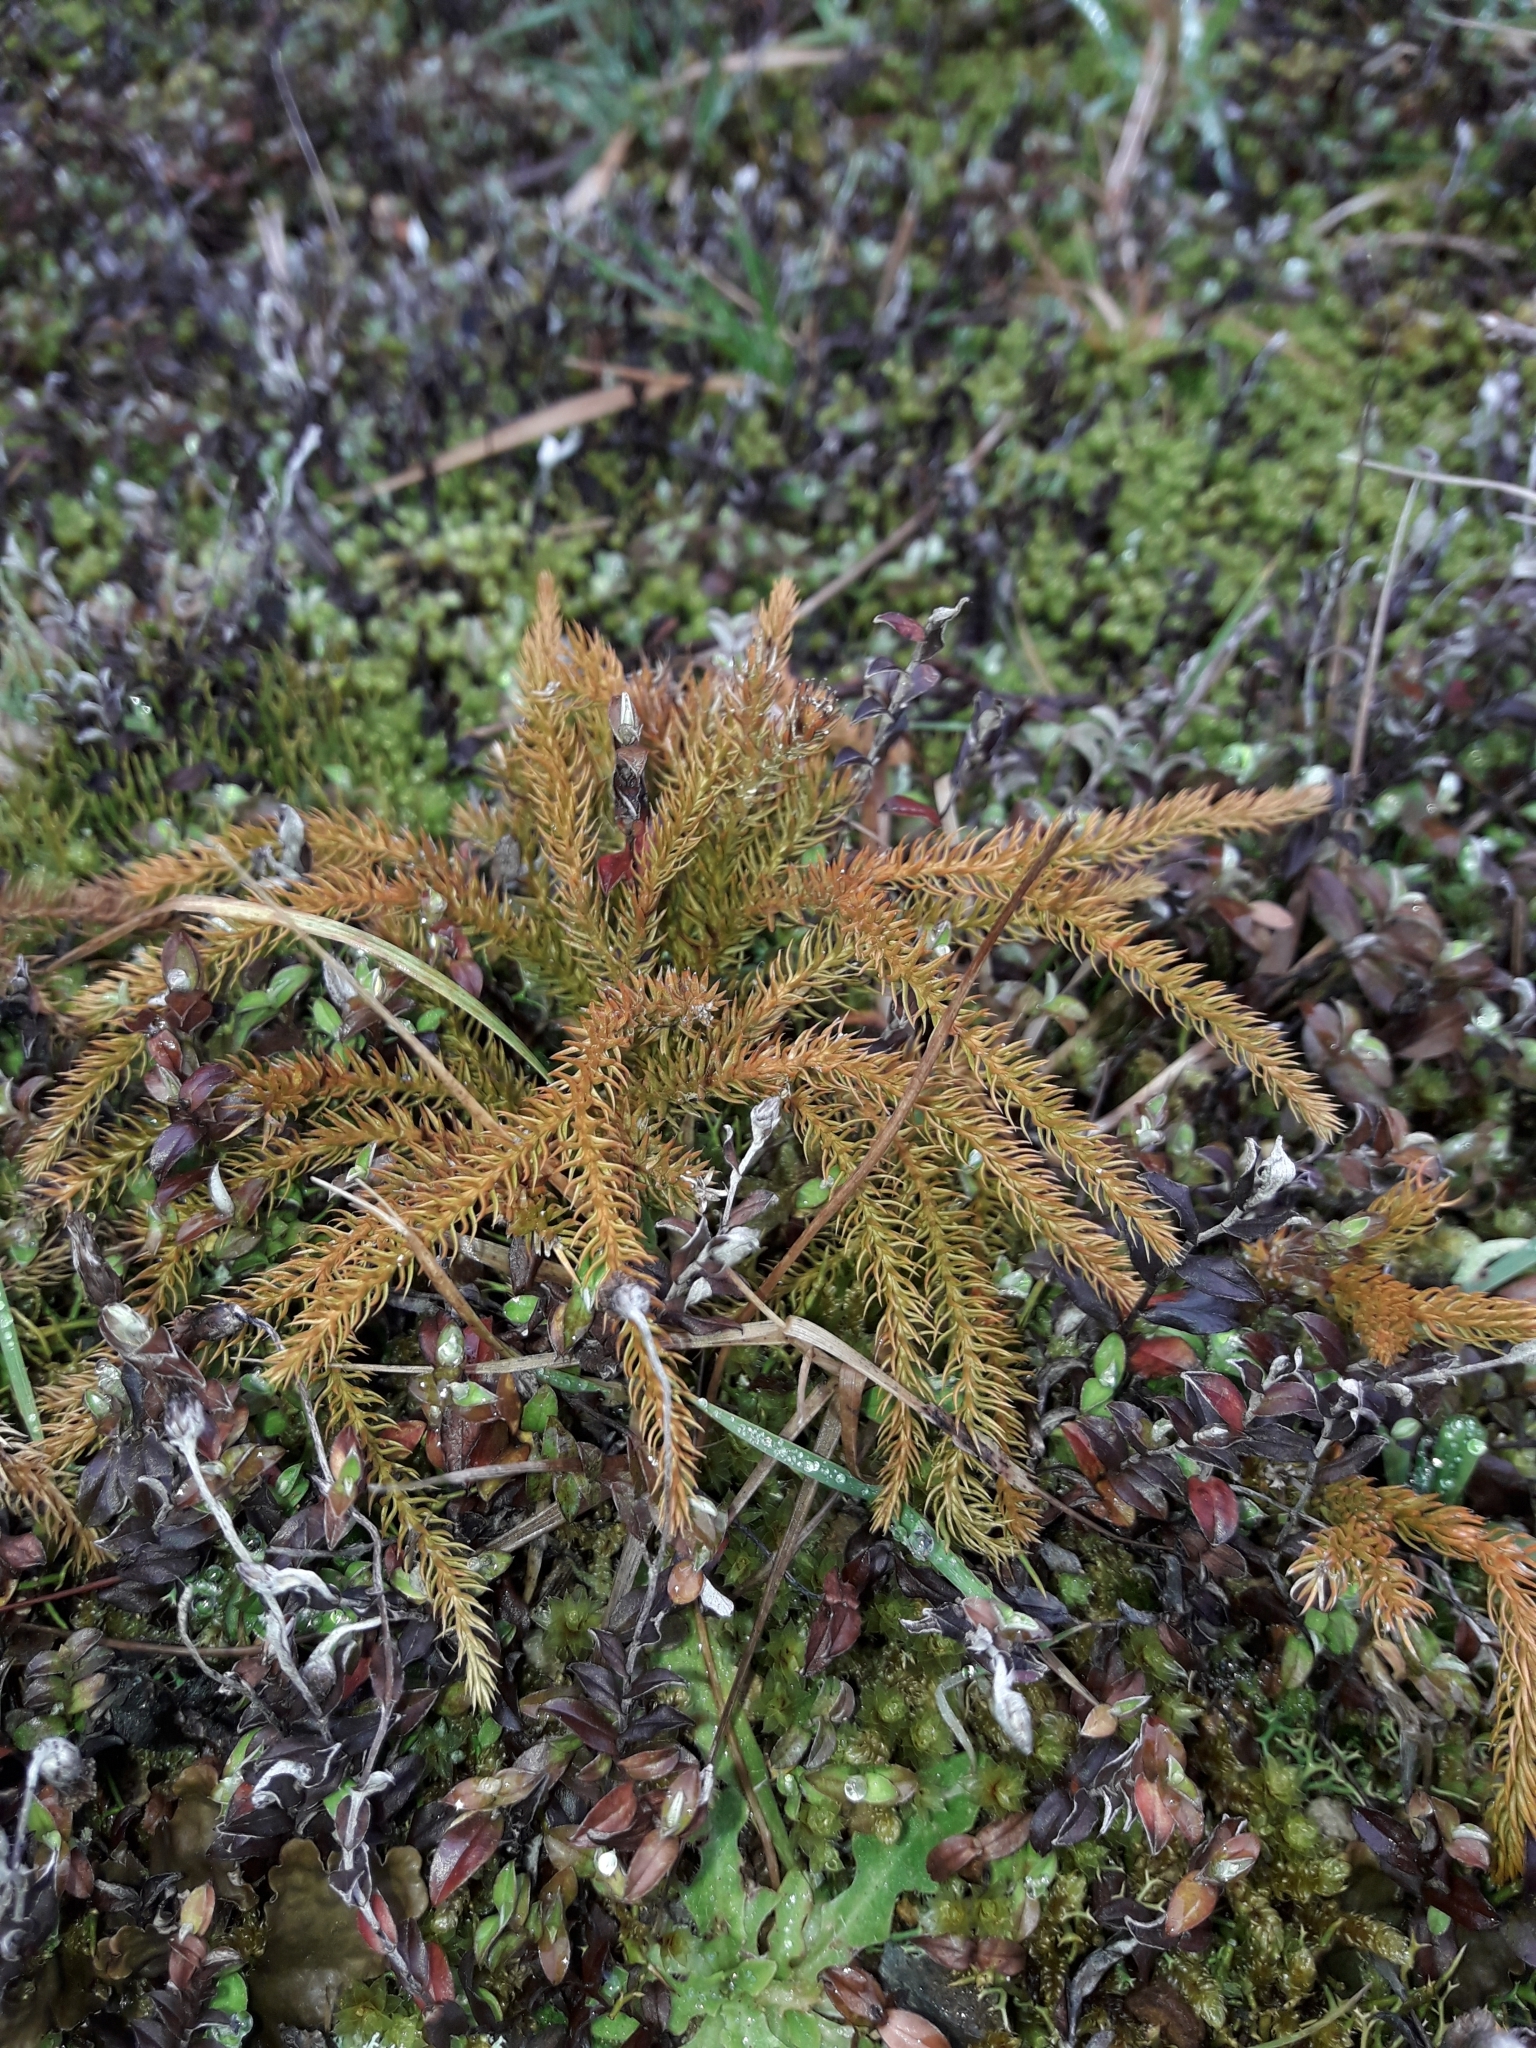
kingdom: Plantae
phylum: Tracheophyta
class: Lycopodiopsida
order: Lycopodiales
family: Lycopodiaceae
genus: Austrolycopodium
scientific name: Austrolycopodium fastigiatum
